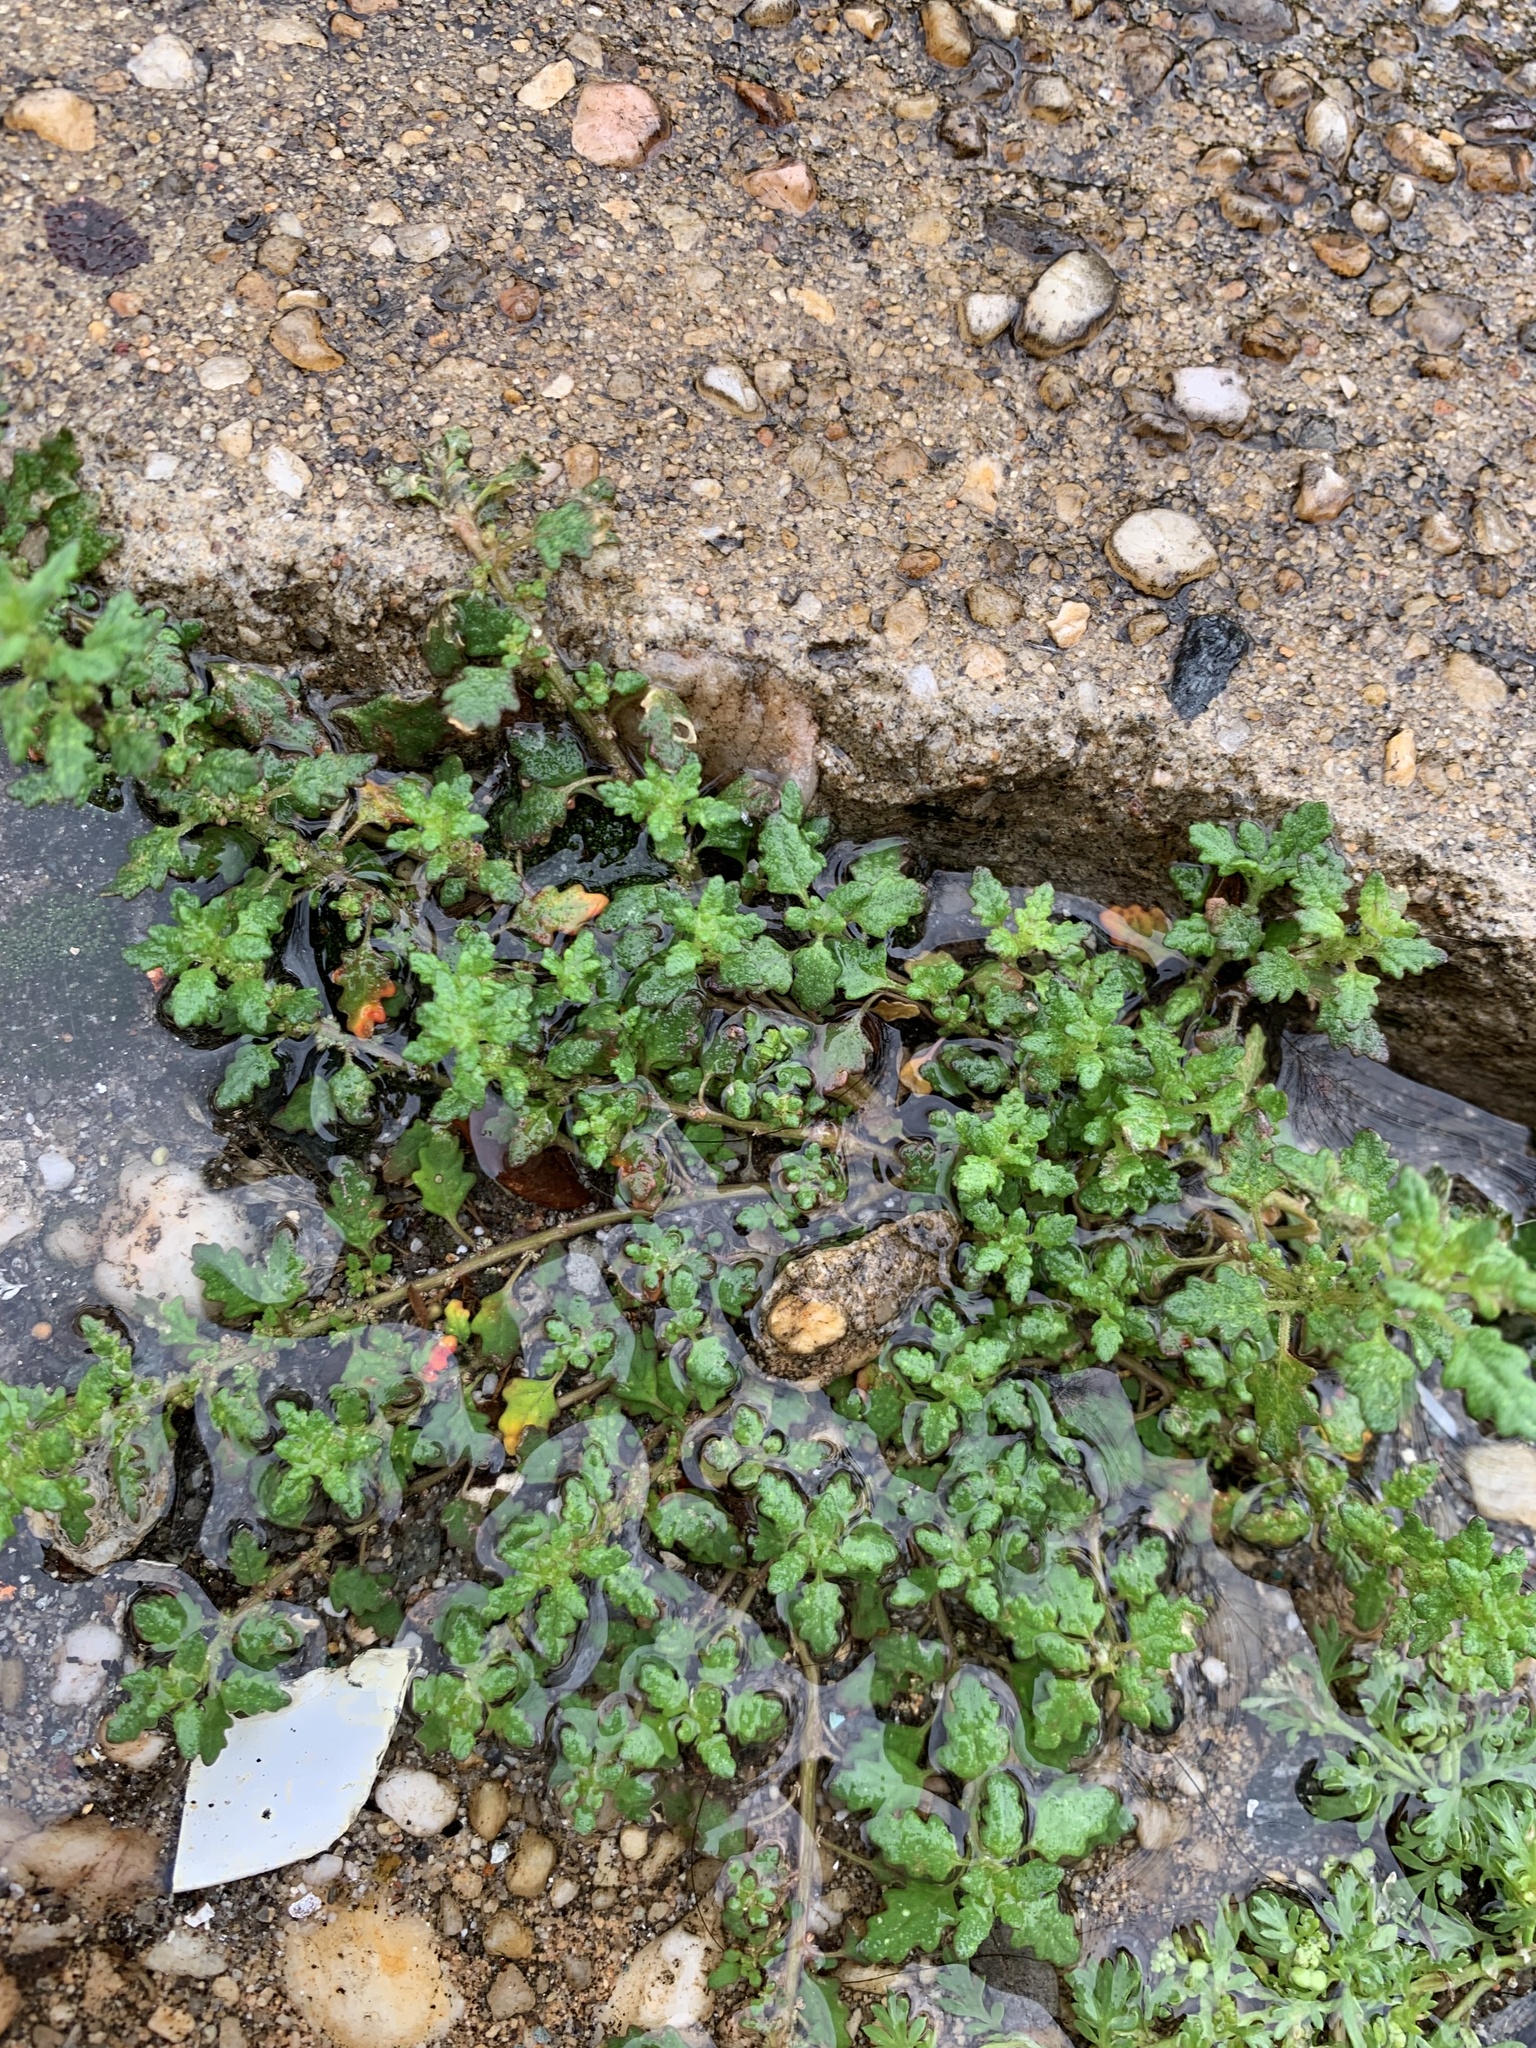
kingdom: Plantae
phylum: Tracheophyta
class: Magnoliopsida
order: Brassicales
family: Brassicaceae
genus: Lepidium
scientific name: Lepidium didymum
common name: Lesser swinecress
